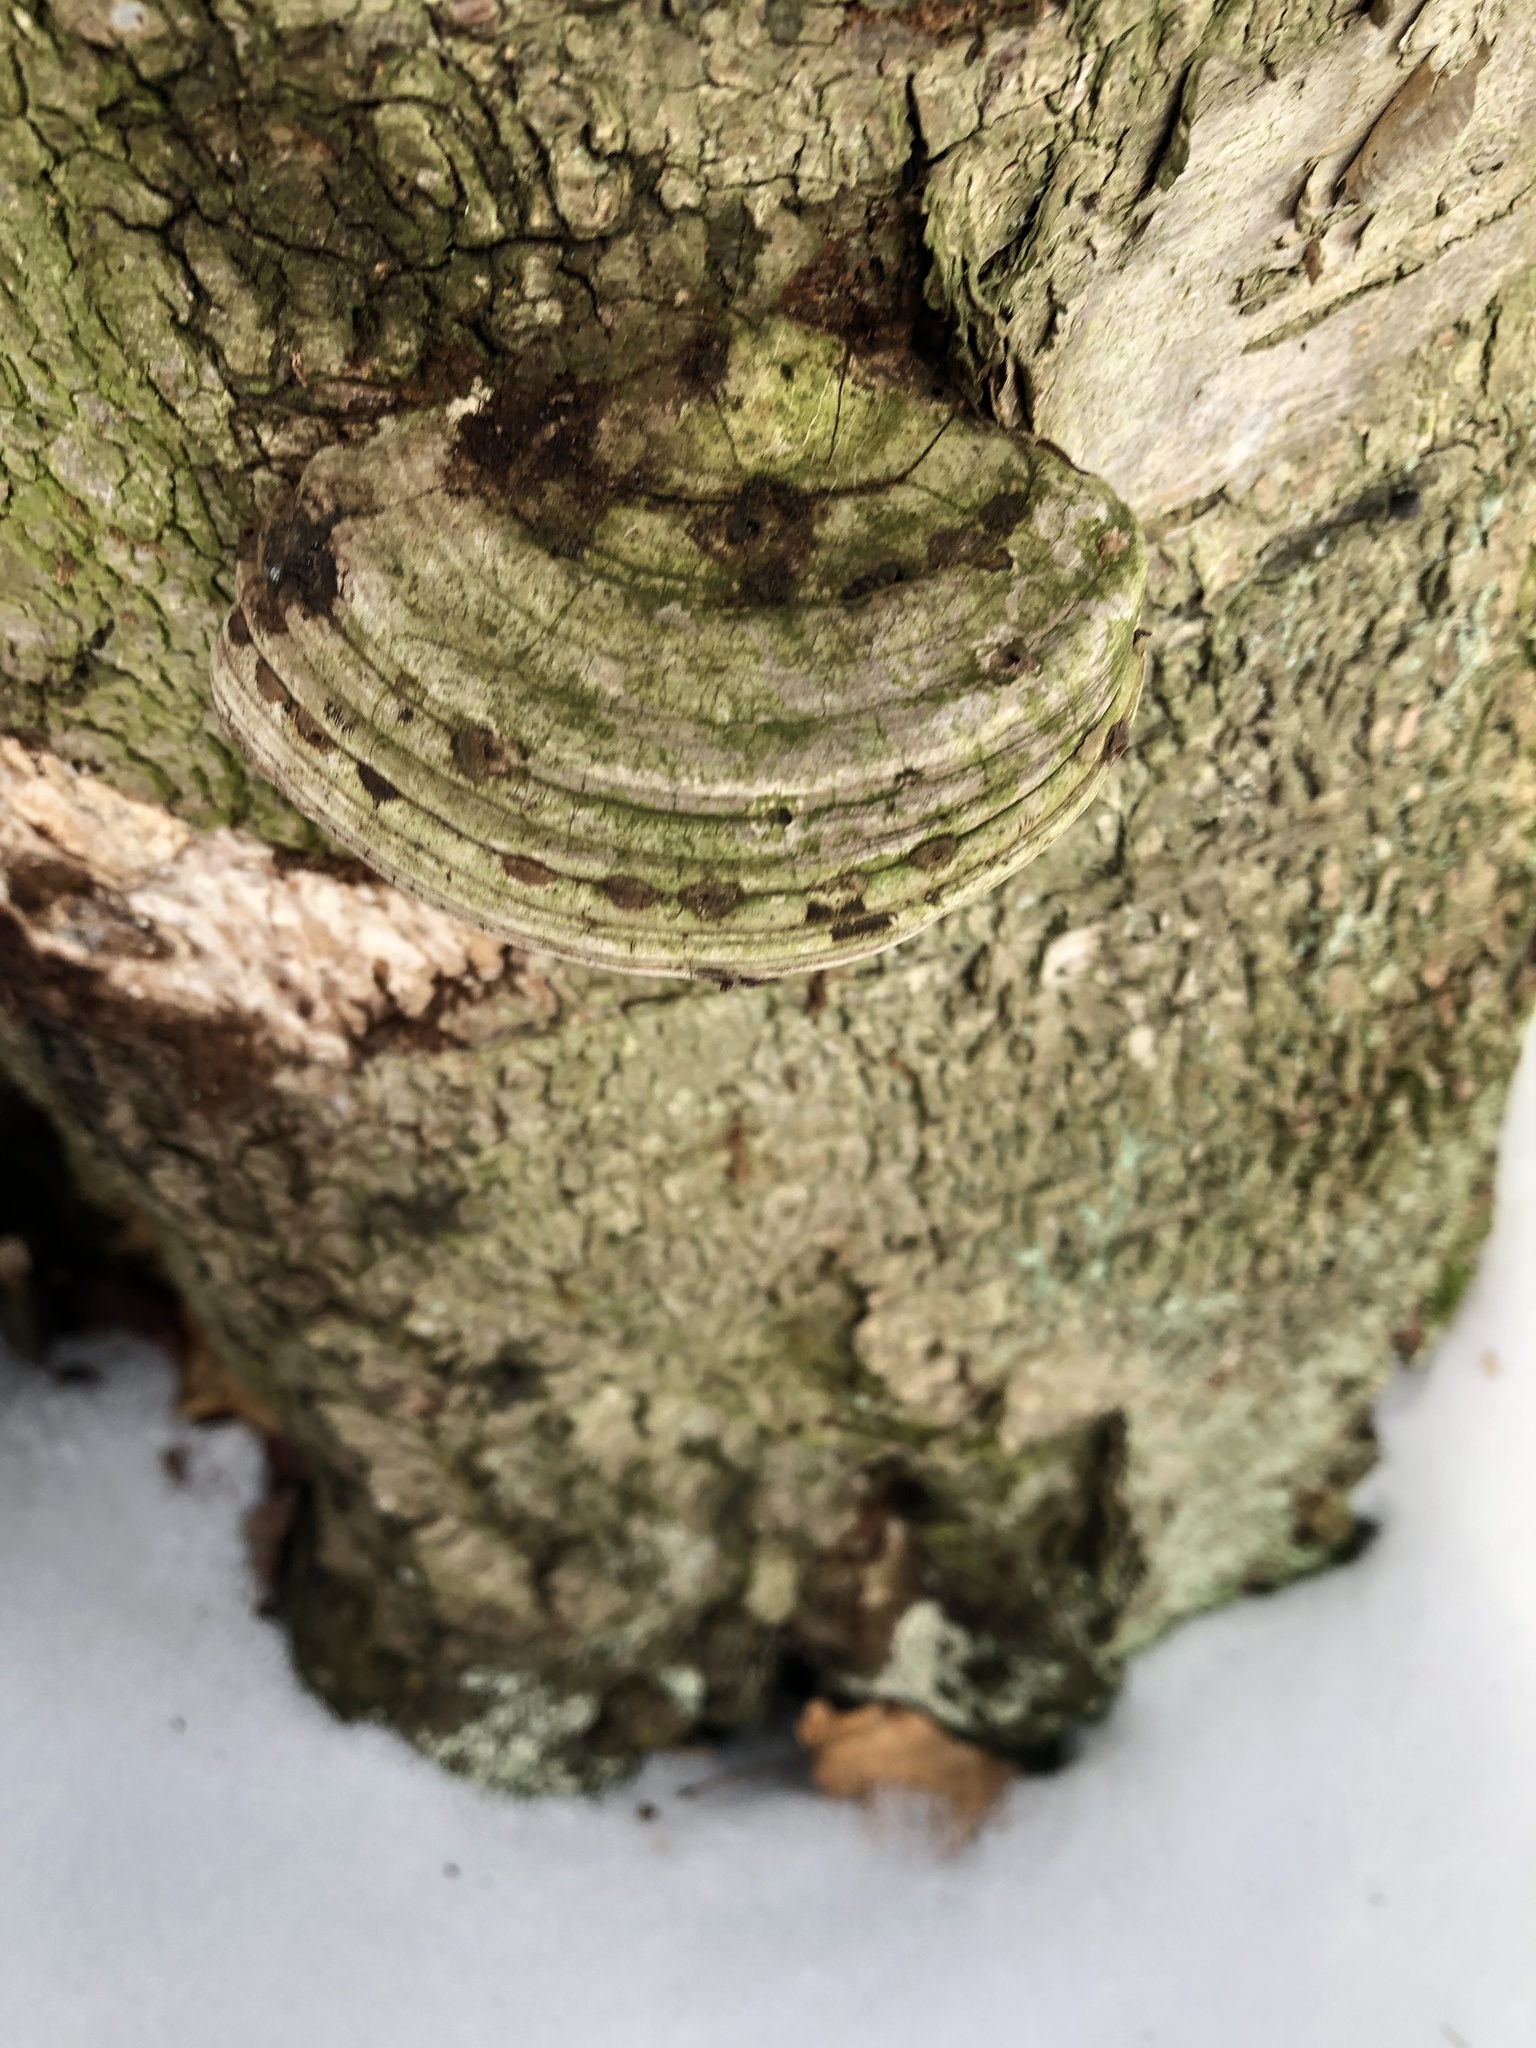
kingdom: Fungi
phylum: Basidiomycota
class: Agaricomycetes
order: Polyporales
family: Polyporaceae
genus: Fomes
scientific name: Fomes fomentarius
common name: Hoof fungus
